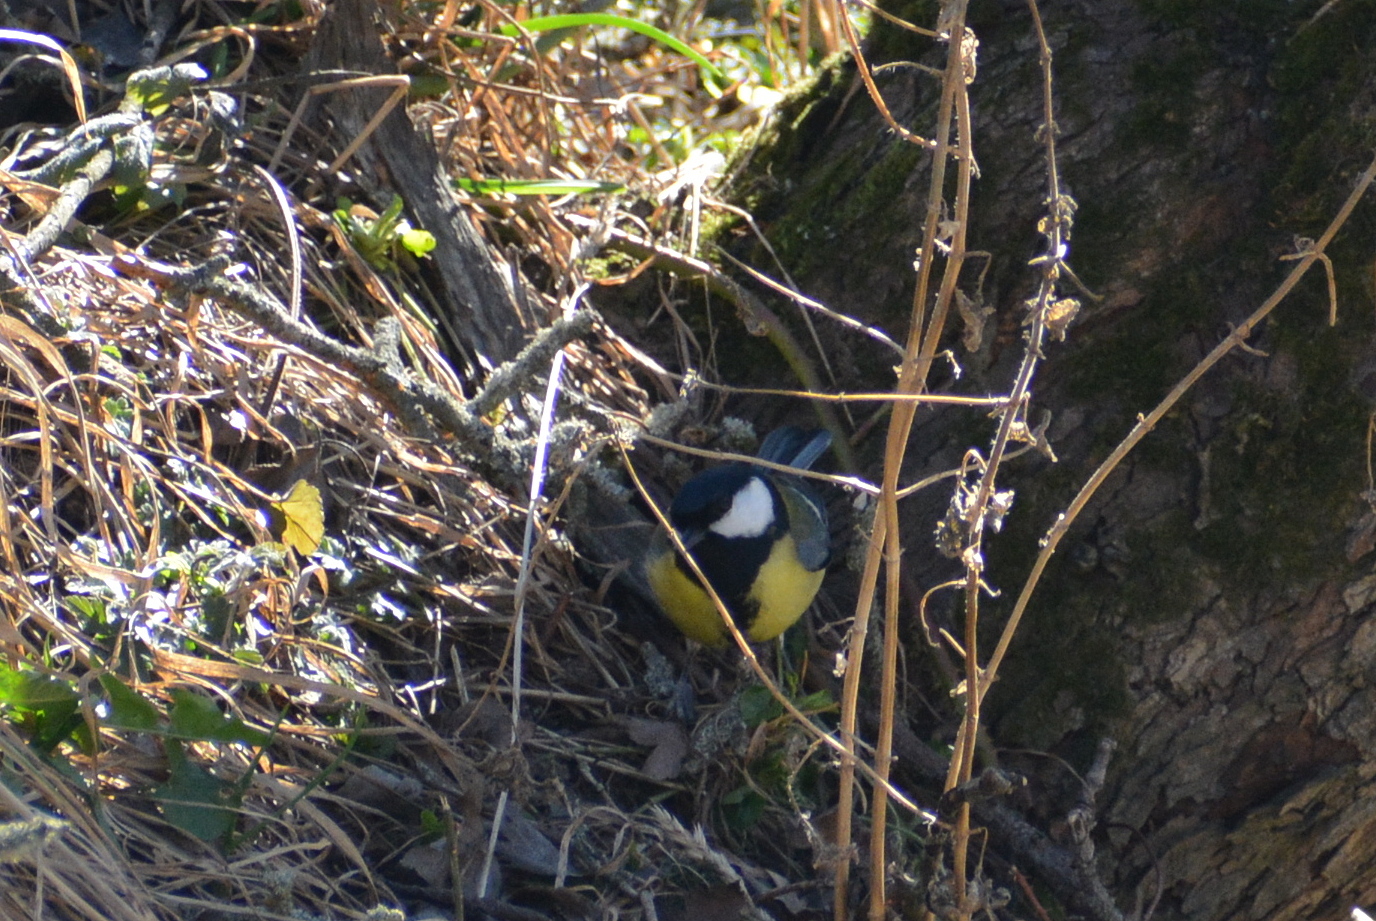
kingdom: Animalia
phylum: Chordata
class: Aves
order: Passeriformes
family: Paridae
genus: Parus
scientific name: Parus major
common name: Great tit
